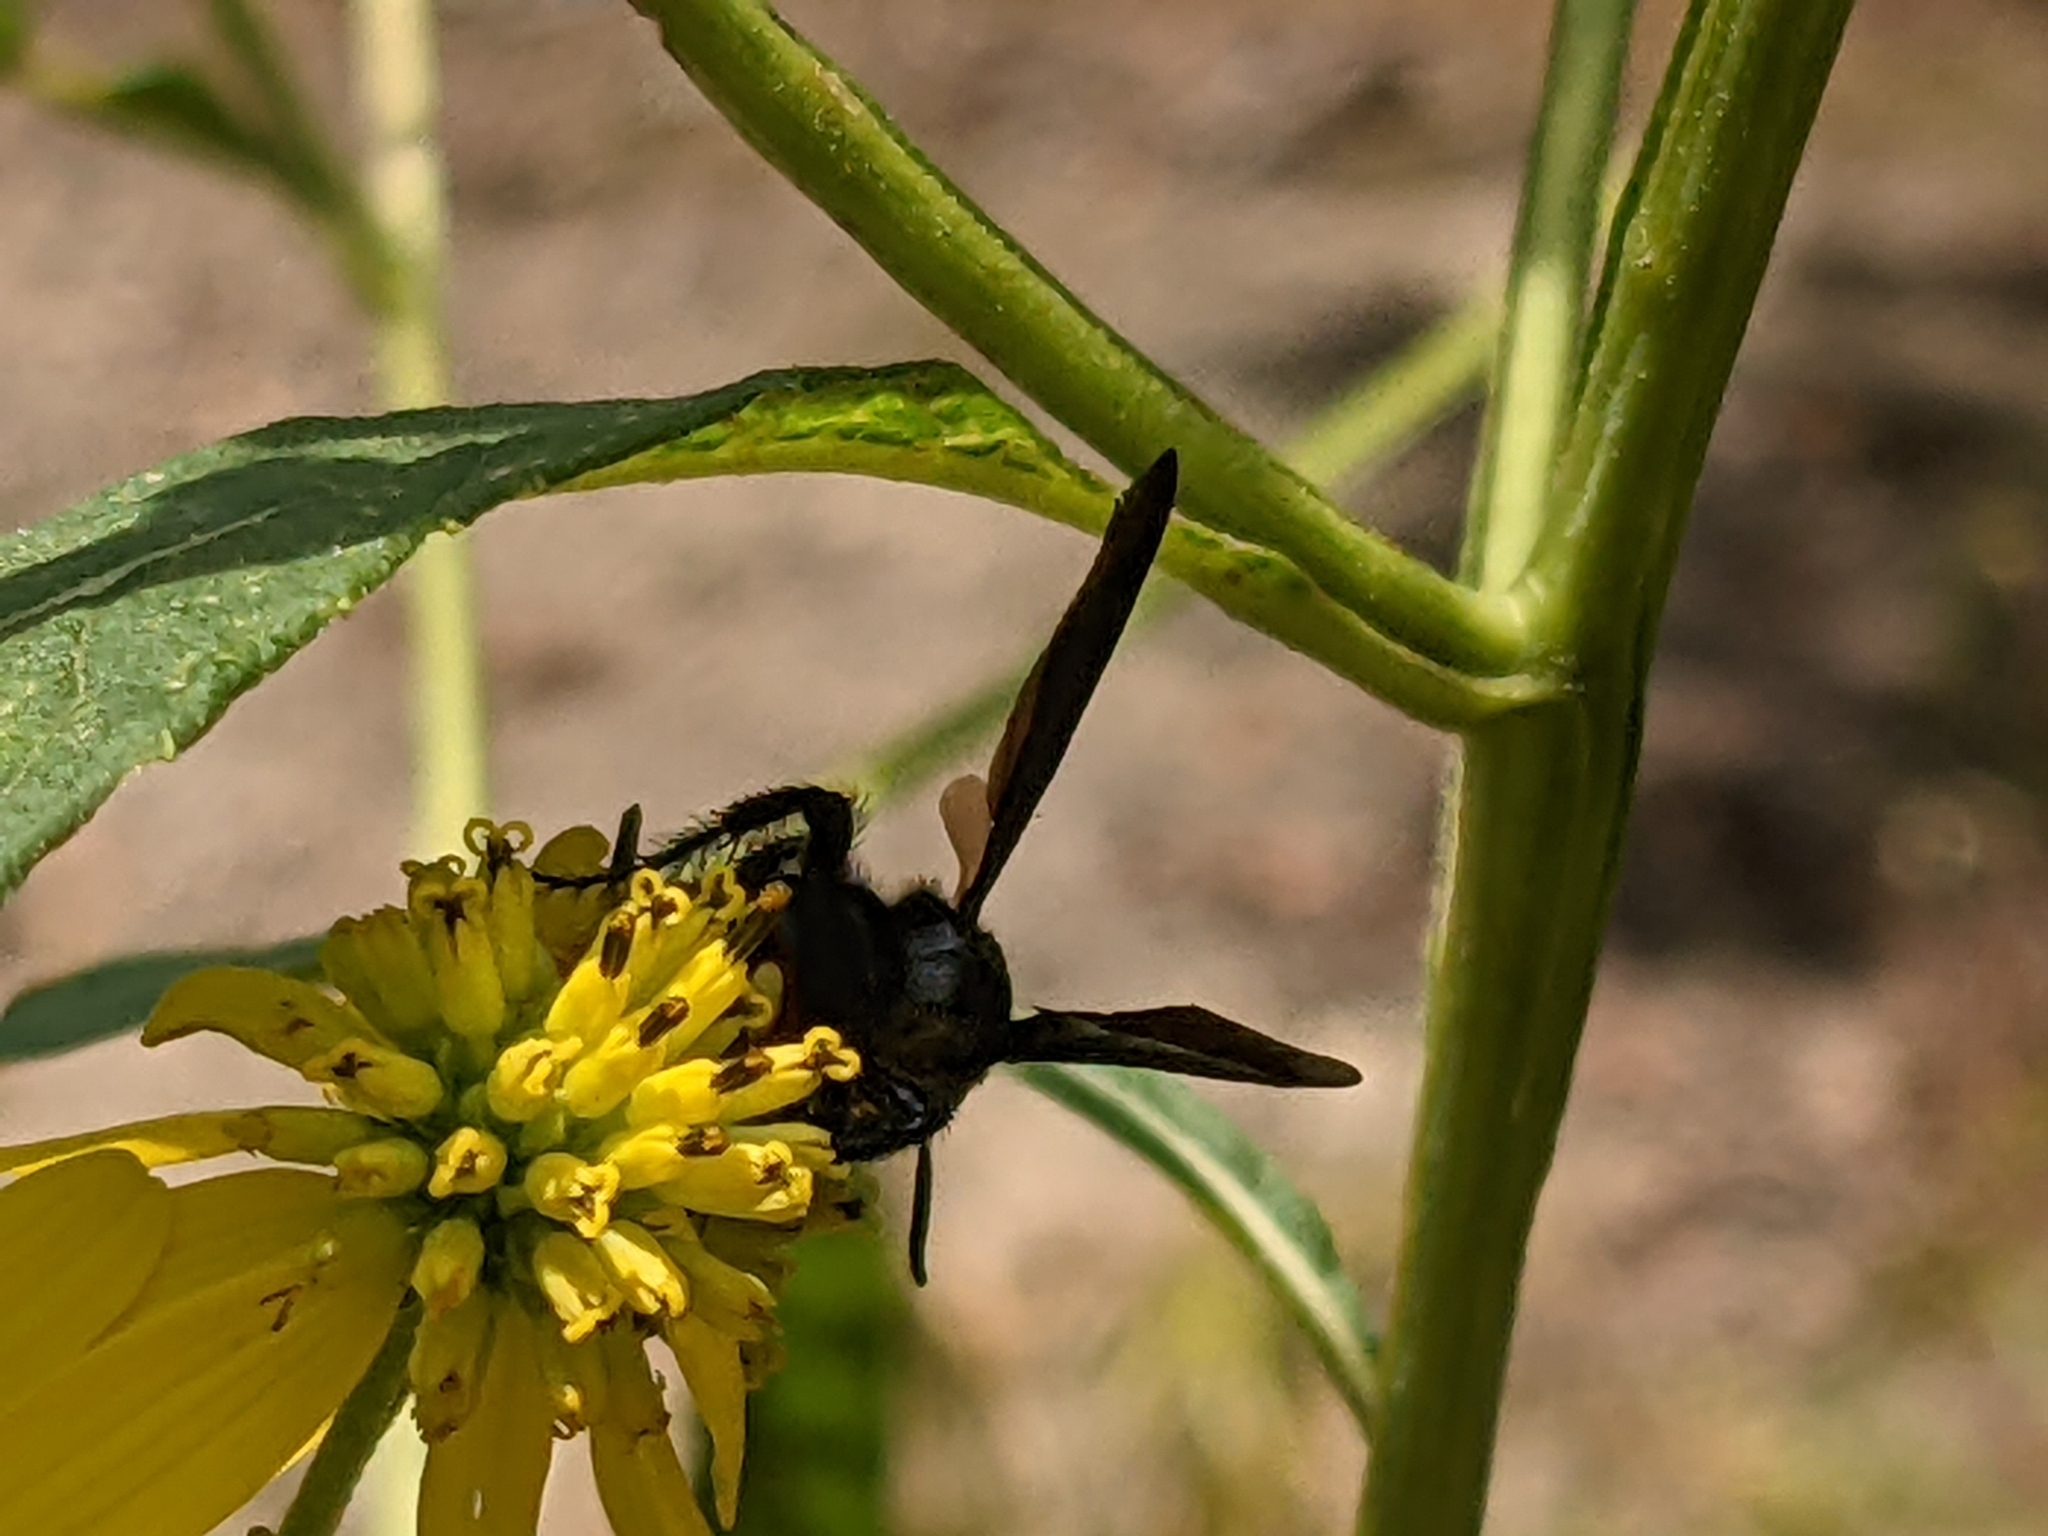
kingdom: Animalia
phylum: Arthropoda
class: Insecta
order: Hymenoptera
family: Scoliidae
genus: Scolia
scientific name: Scolia dubia
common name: Blue-winged scoliid wasp
